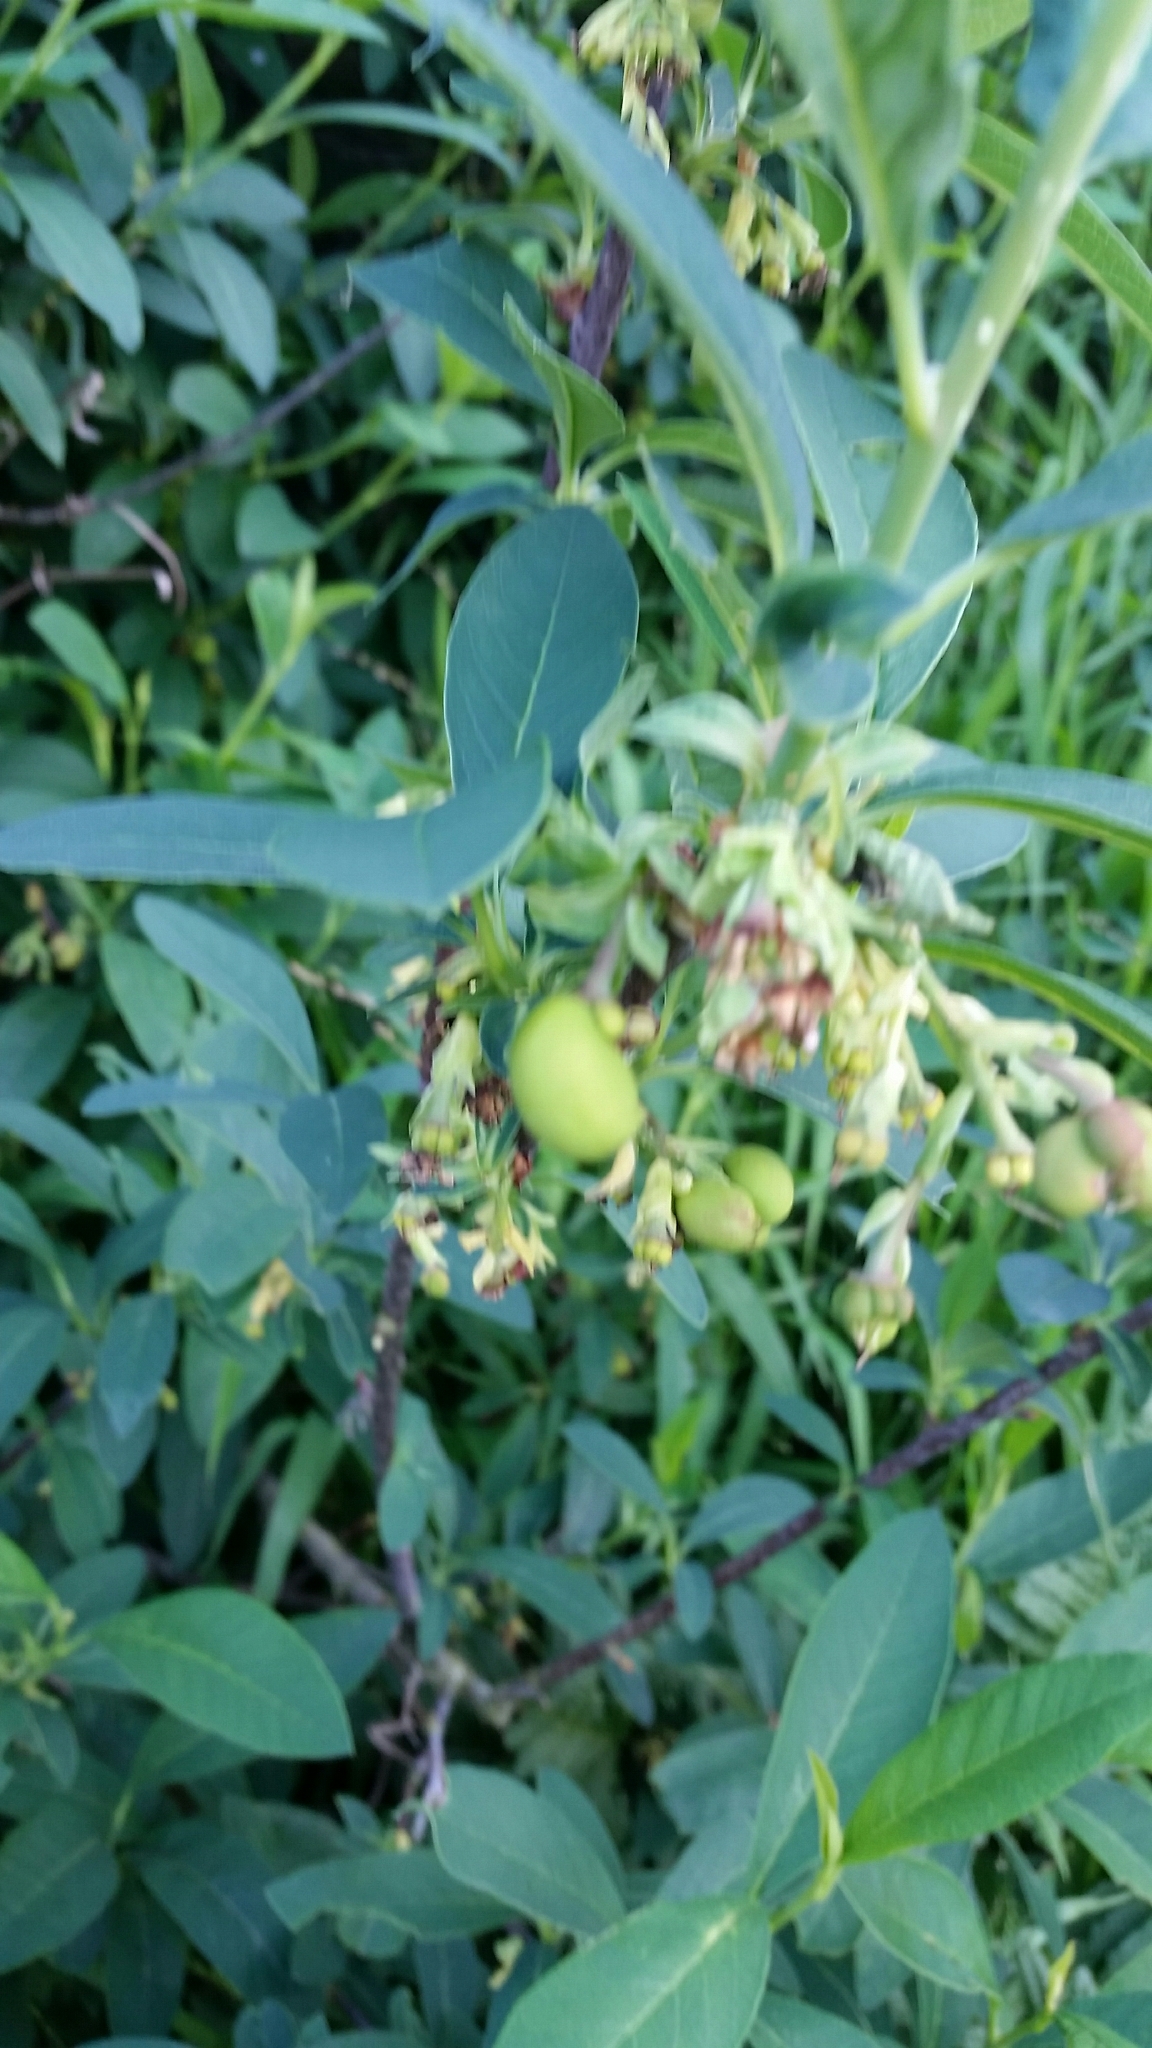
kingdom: Plantae
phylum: Tracheophyta
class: Magnoliopsida
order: Rosales
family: Rosaceae
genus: Oemleria
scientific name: Oemleria cerasiformis
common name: Osoberry
